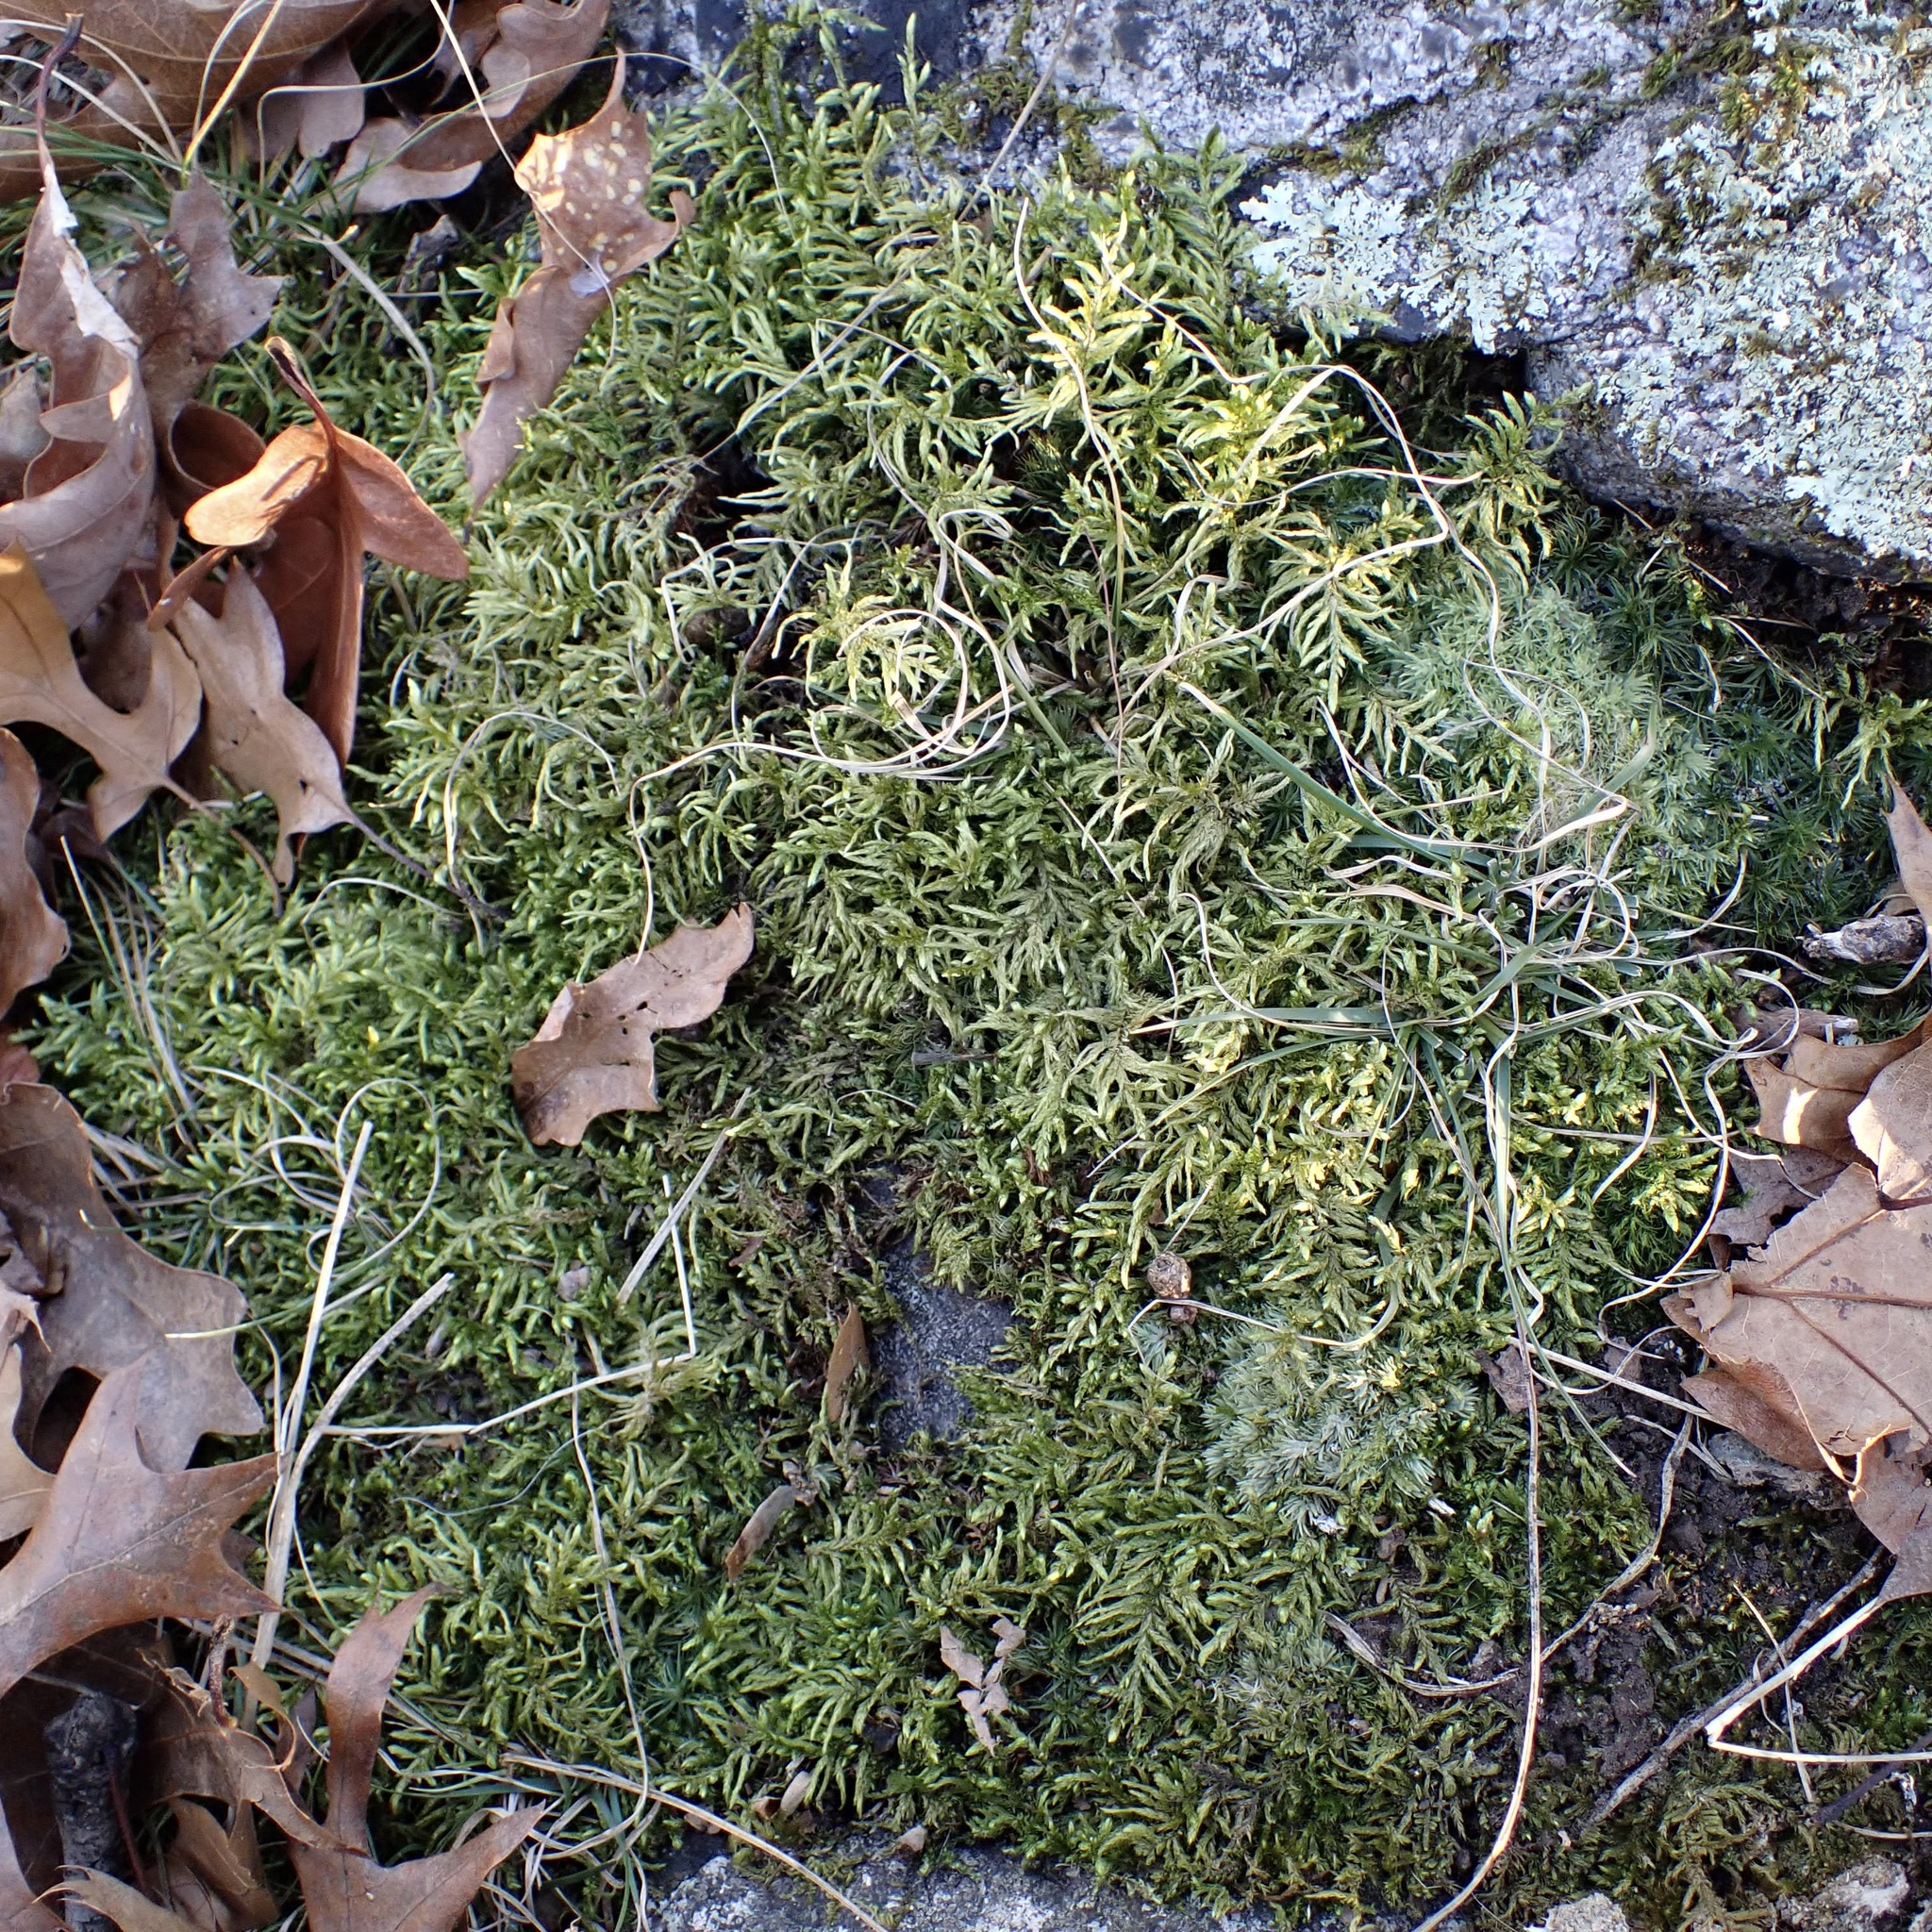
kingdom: Plantae
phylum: Bryophyta
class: Bryopsida
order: Hypnales
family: Hylocomiaceae
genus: Pleurozium
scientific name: Pleurozium schreberi
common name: Red-stemmed feather moss
